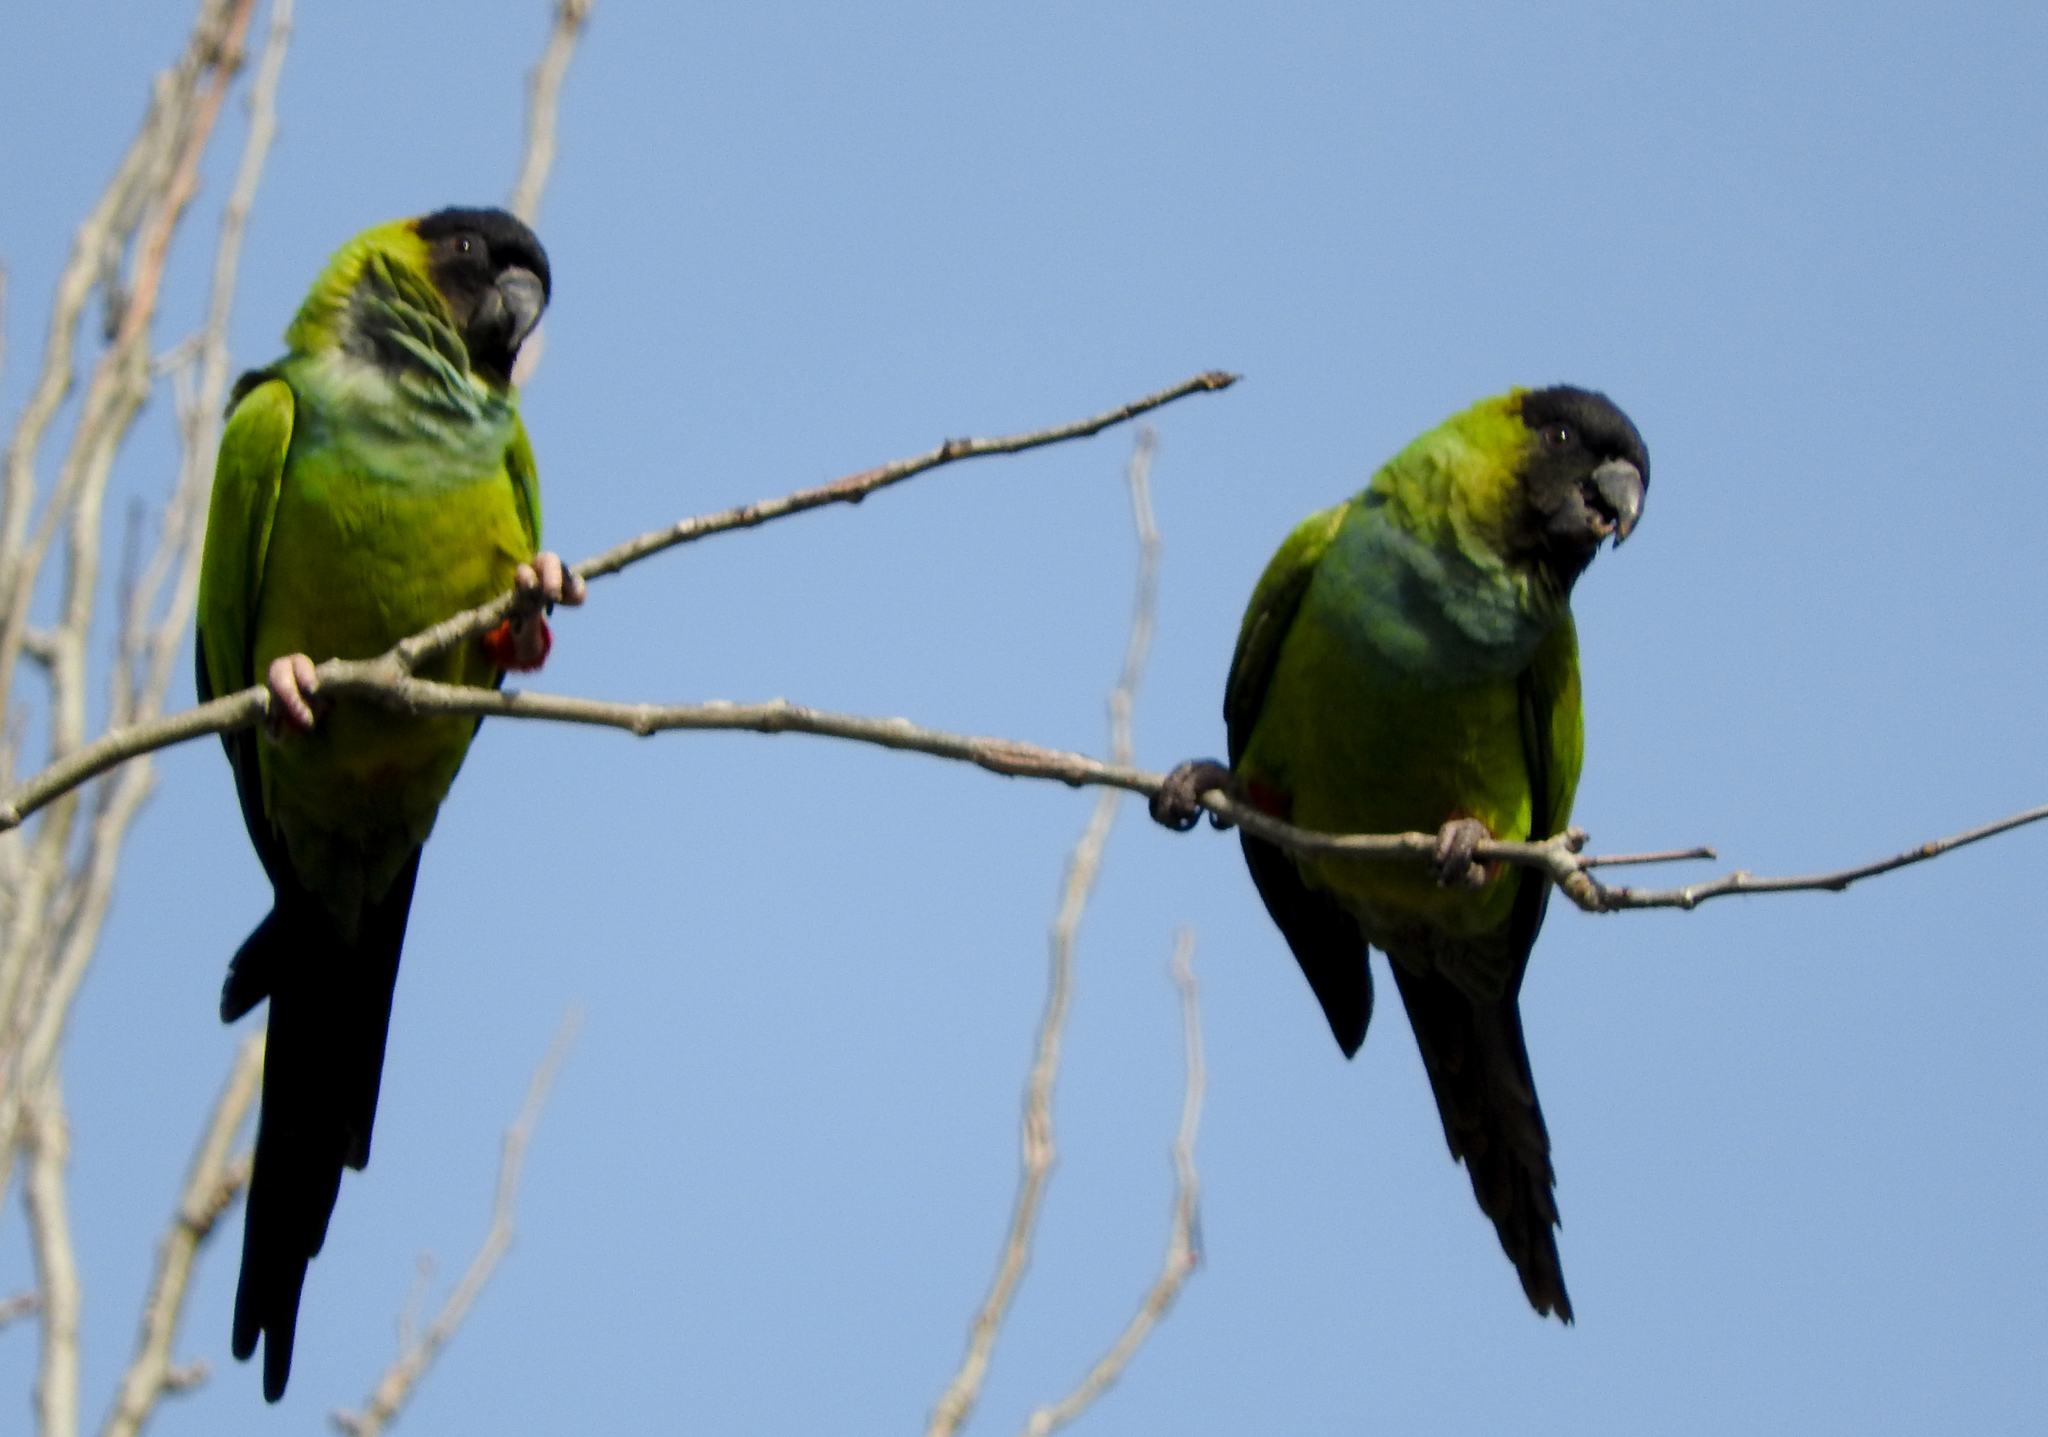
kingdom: Animalia
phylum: Chordata
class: Aves
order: Psittaciformes
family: Psittacidae
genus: Nandayus
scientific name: Nandayus nenday
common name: Nanday parakeet
